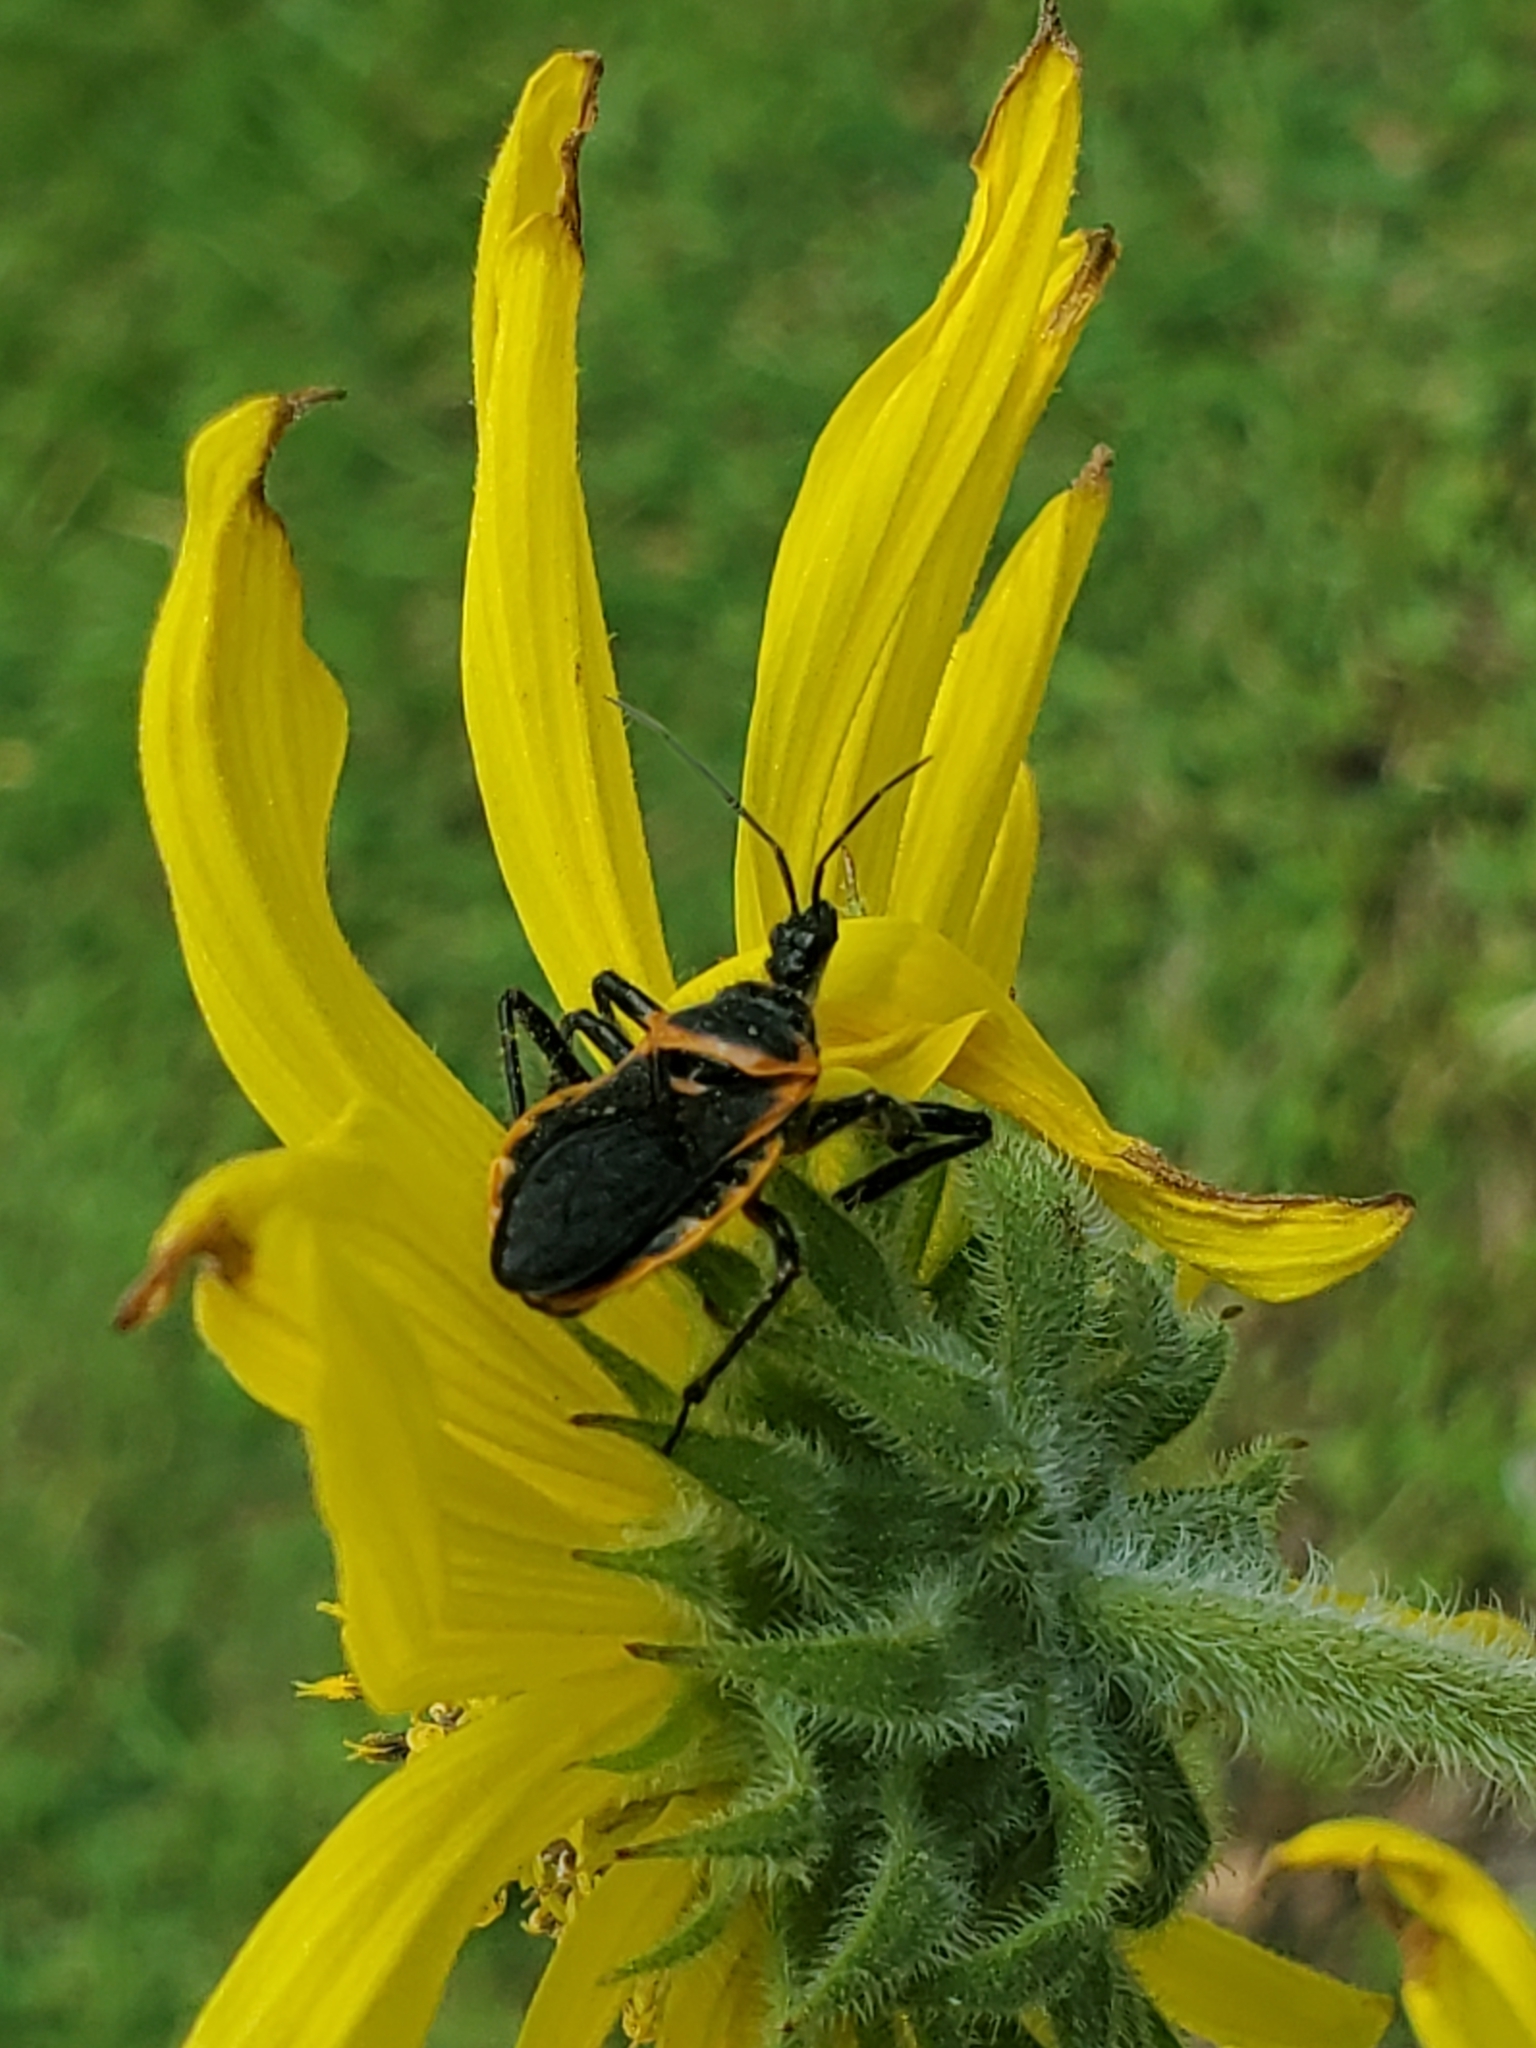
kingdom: Animalia
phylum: Arthropoda
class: Insecta
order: Hemiptera
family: Reduviidae
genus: Apiomerus
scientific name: Apiomerus crassipes
